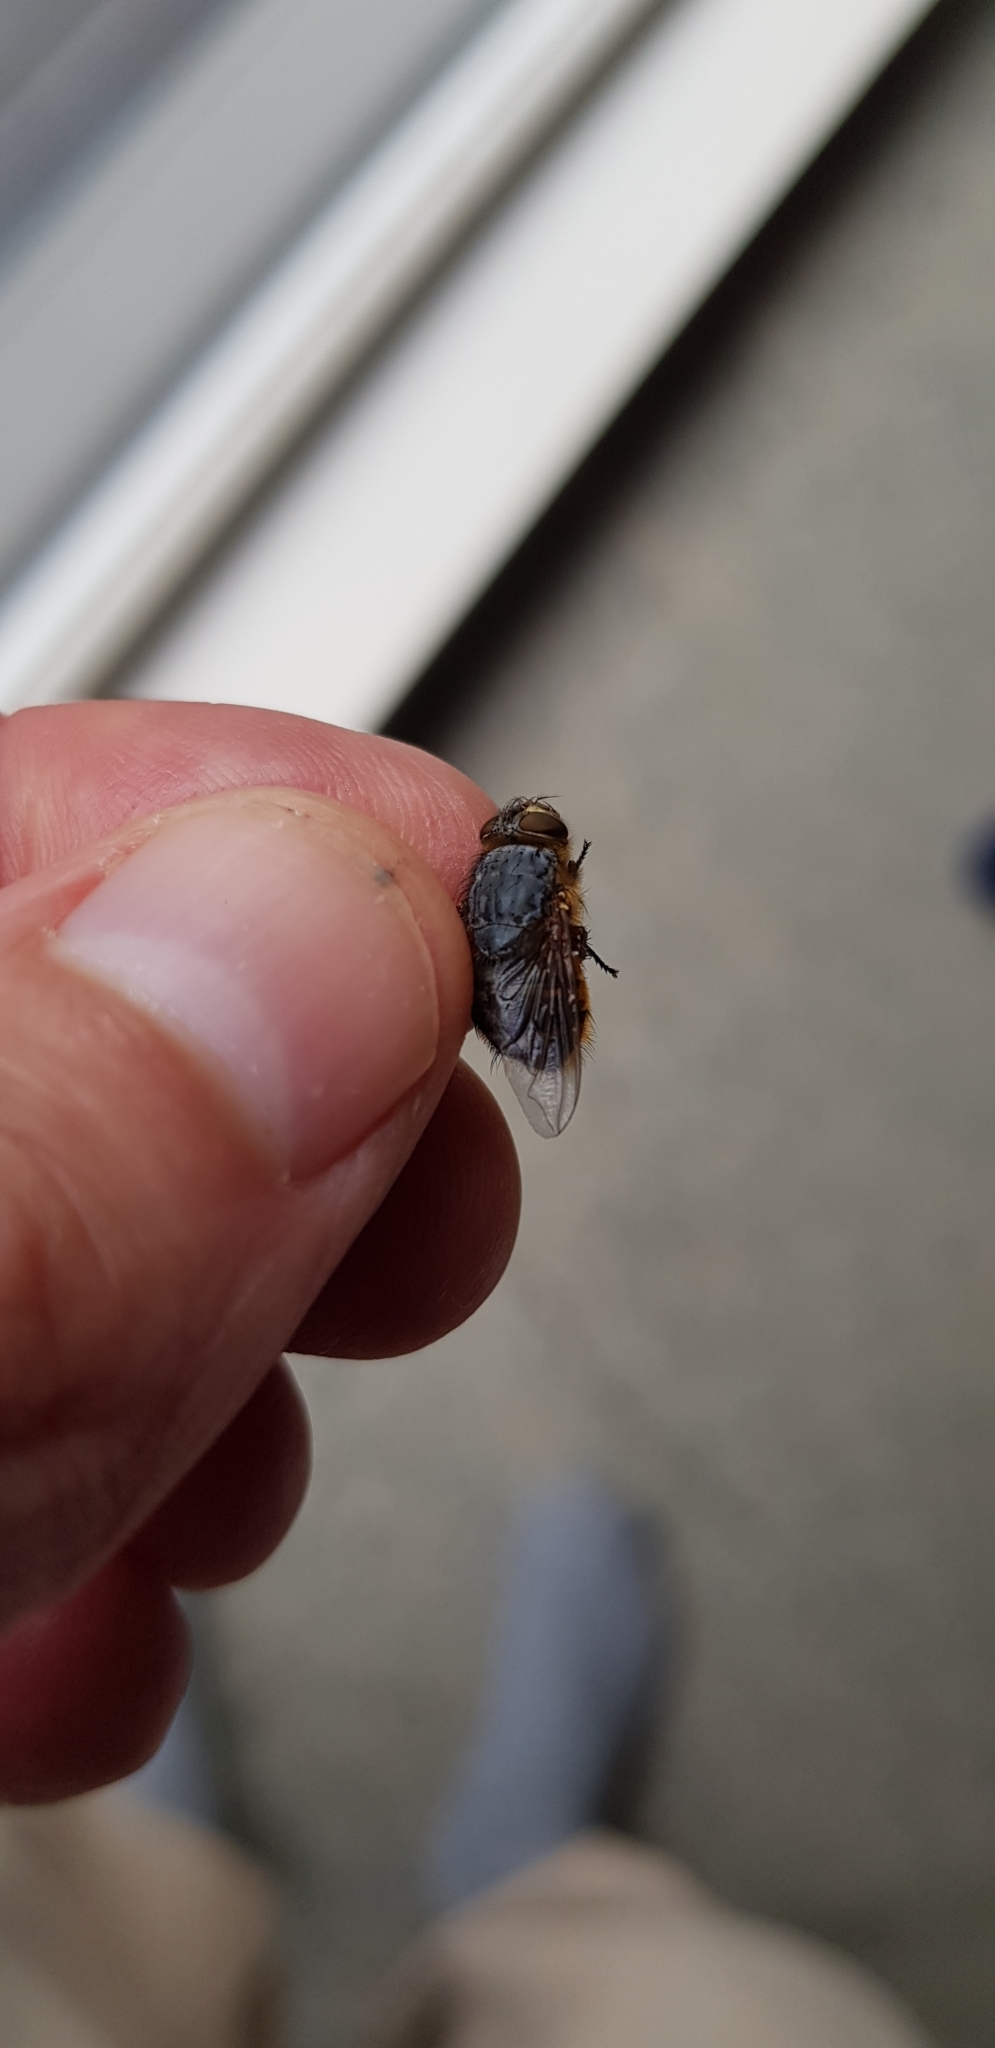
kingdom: Animalia
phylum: Arthropoda
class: Insecta
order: Diptera
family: Calliphoridae
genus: Calliphora
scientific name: Calliphora hilli
